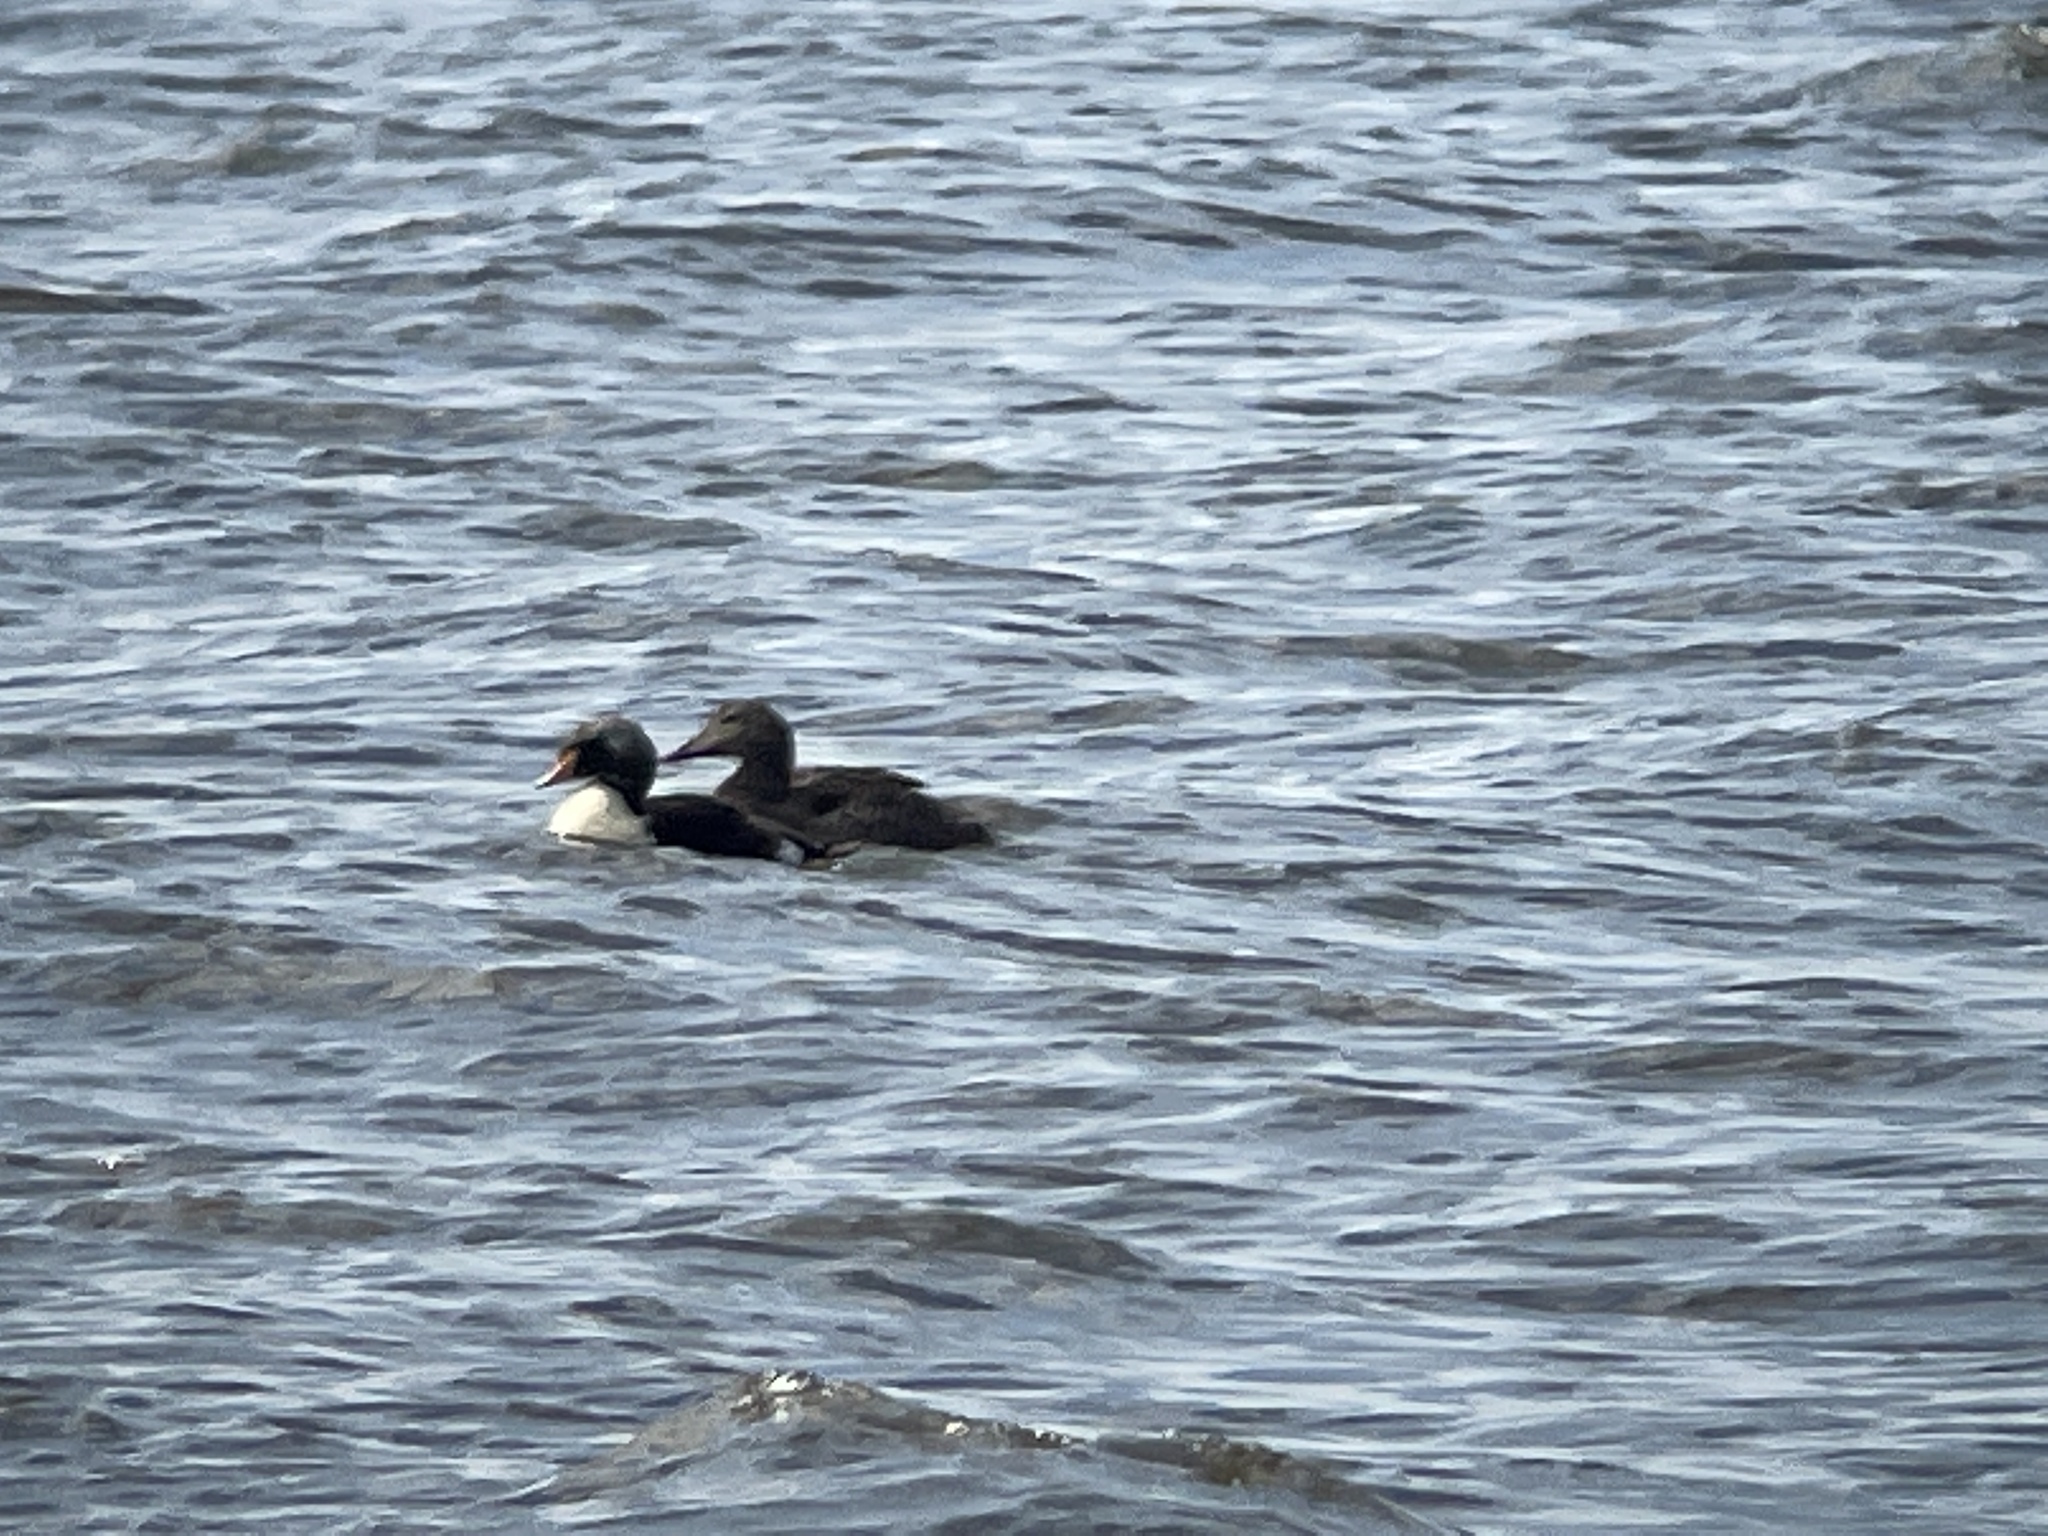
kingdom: Animalia
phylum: Chordata
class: Aves
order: Anseriformes
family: Anatidae
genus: Somateria
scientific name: Somateria spectabilis
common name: King eider
